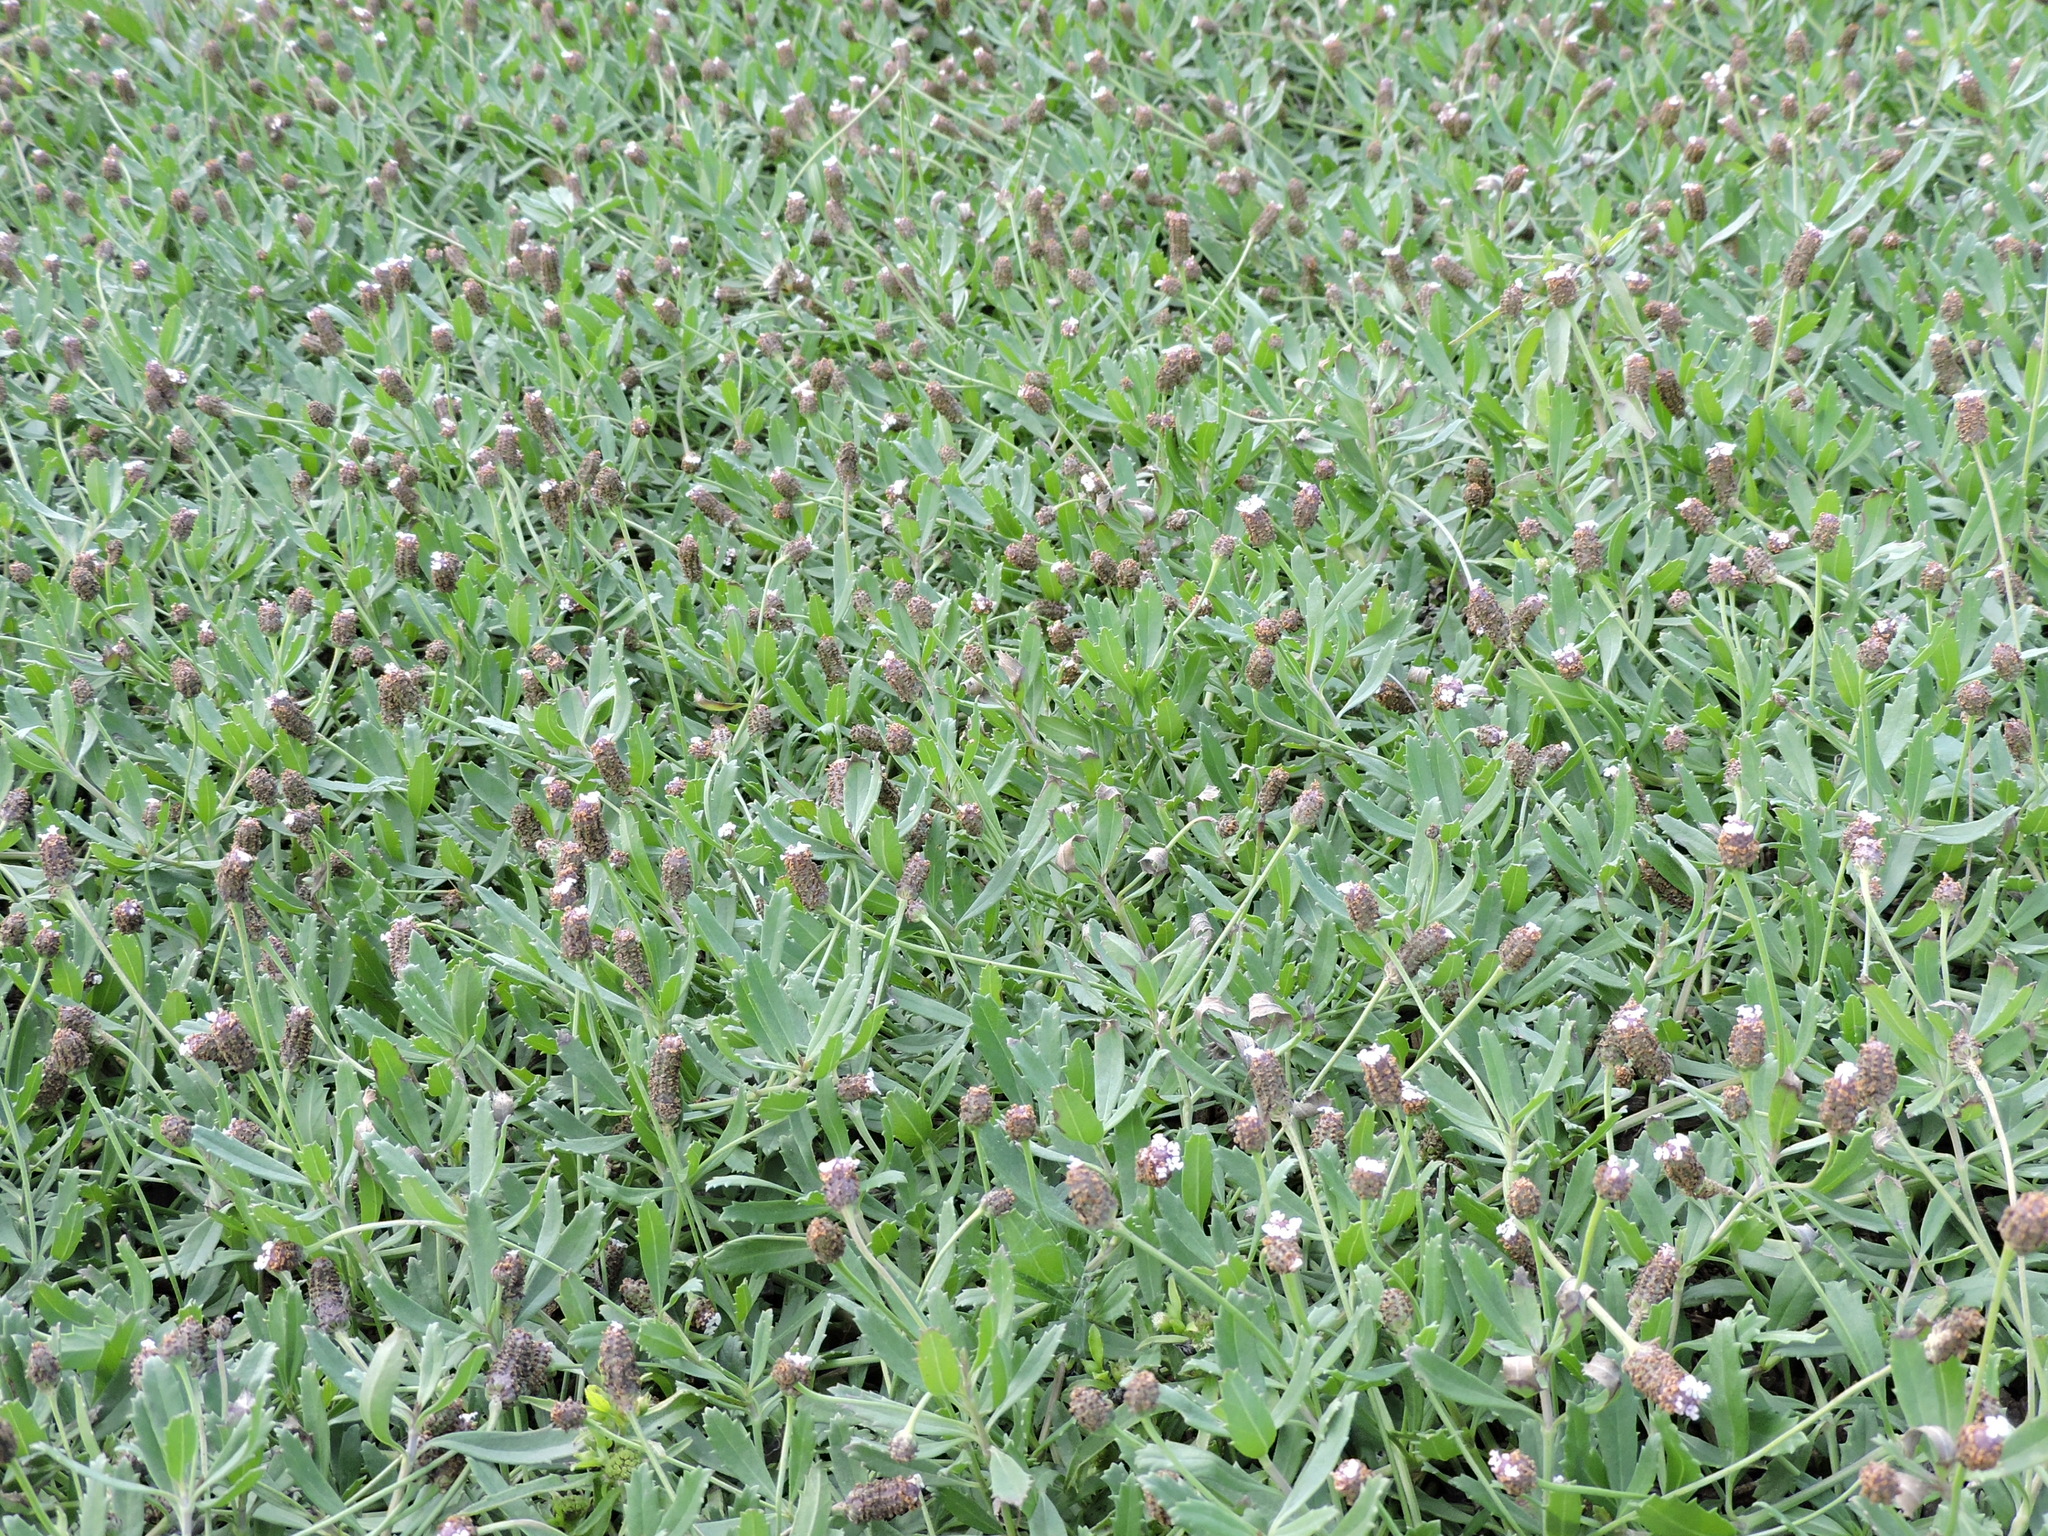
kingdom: Plantae
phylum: Tracheophyta
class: Magnoliopsida
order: Lamiales
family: Verbenaceae
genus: Phyla
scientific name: Phyla nodiflora
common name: Frogfruit
